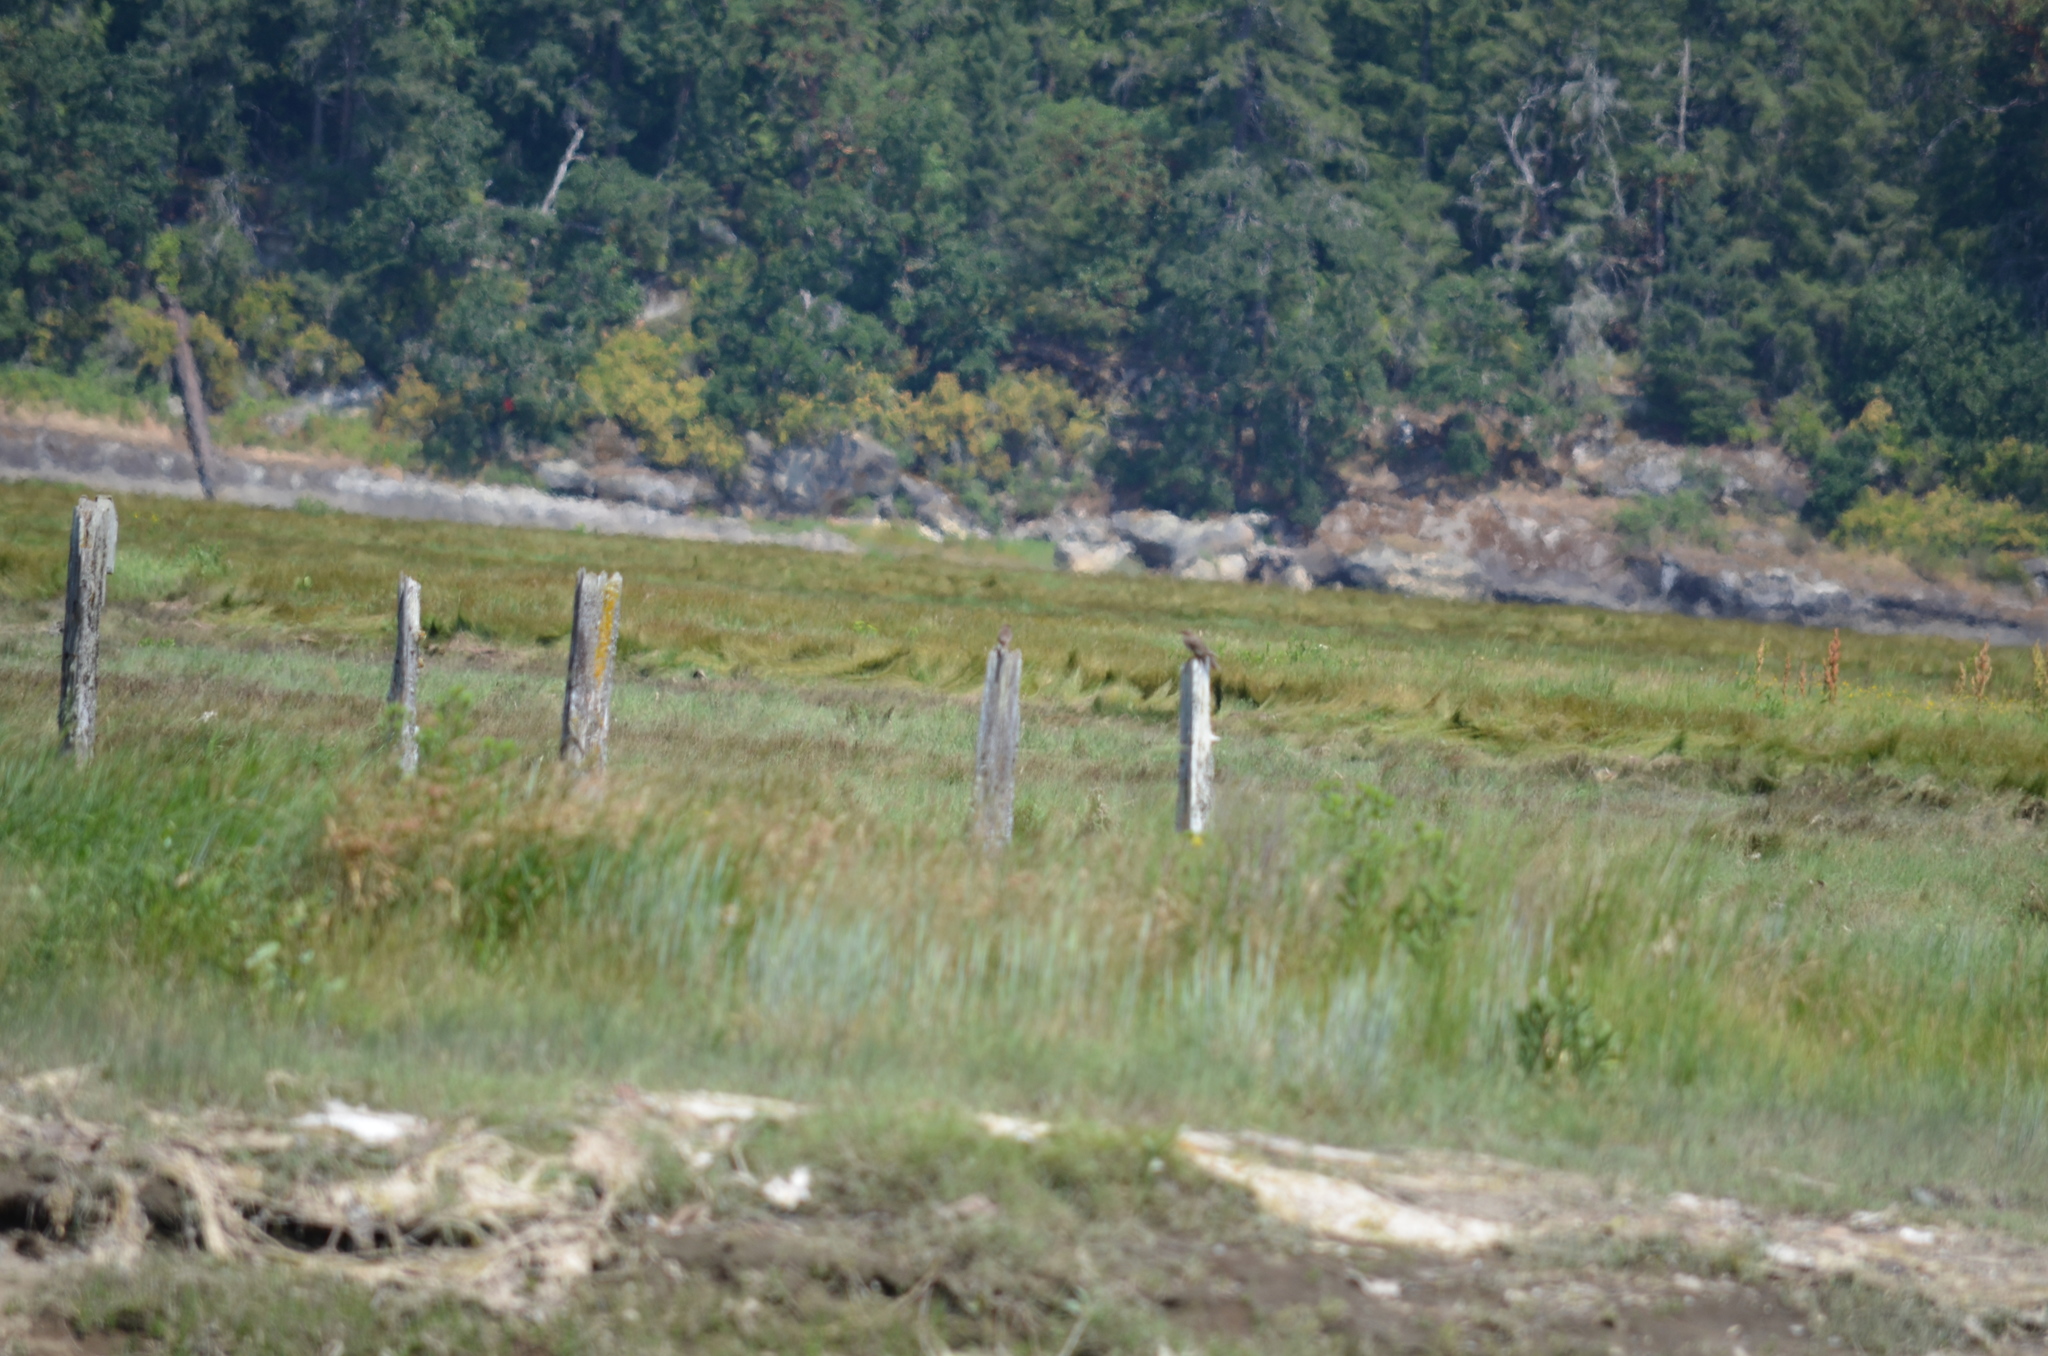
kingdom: Animalia
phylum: Chordata
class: Aves
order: Piciformes
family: Picidae
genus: Colaptes
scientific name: Colaptes auratus
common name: Northern flicker
